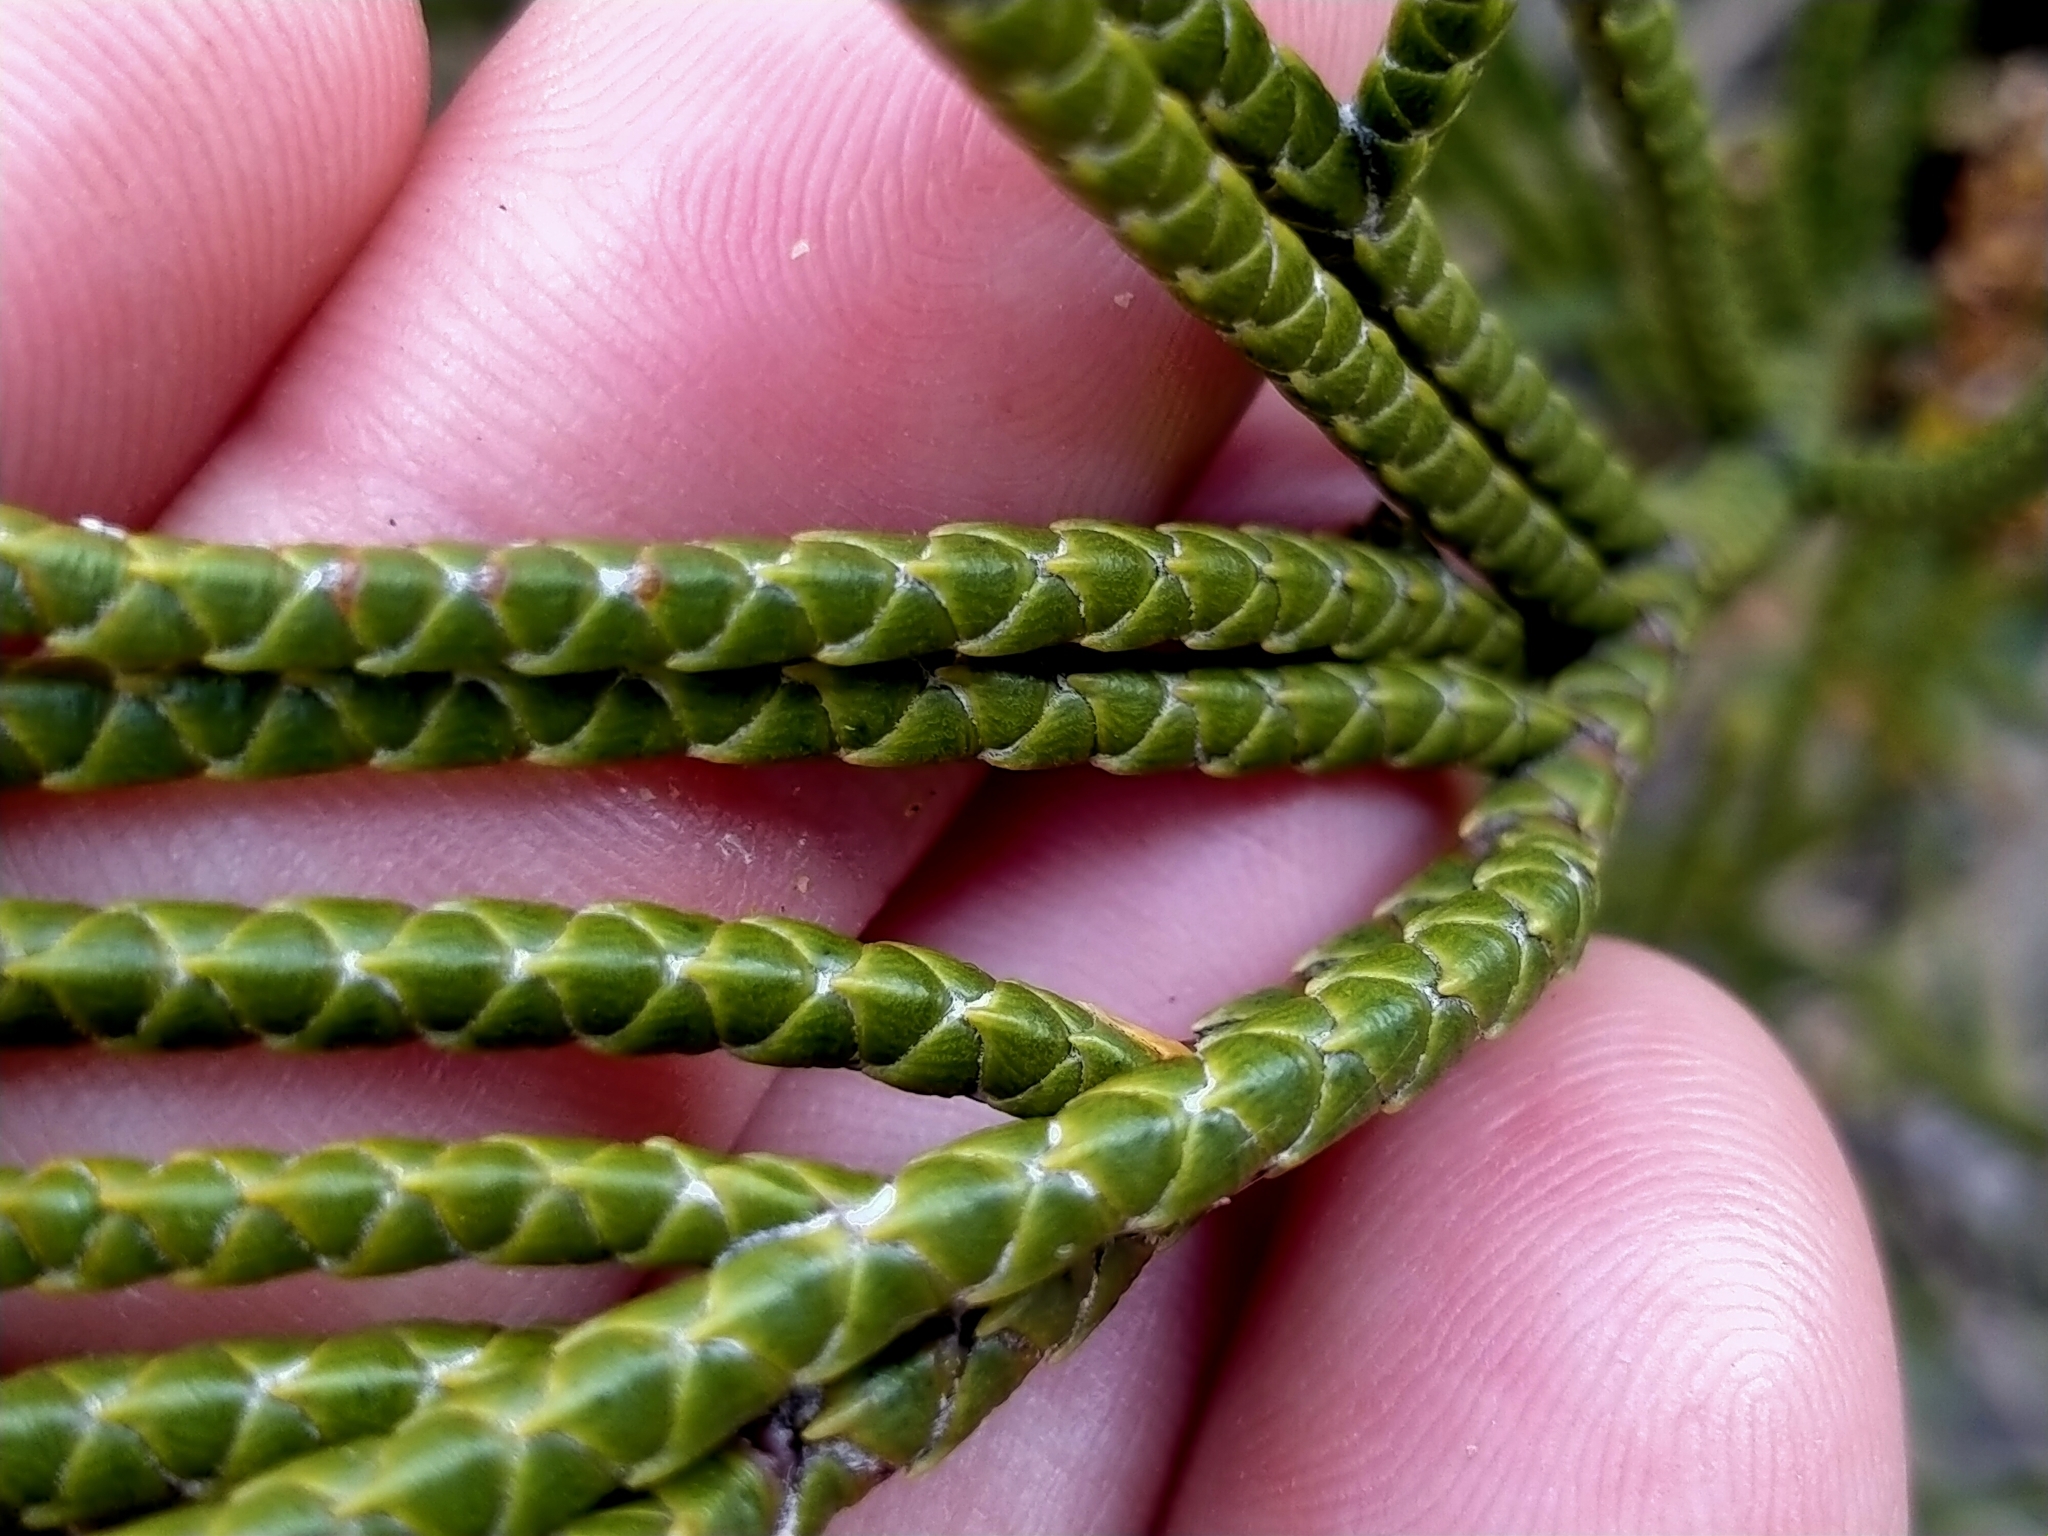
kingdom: Plantae
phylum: Tracheophyta
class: Magnoliopsida
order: Lamiales
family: Plantaginaceae
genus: Veronica
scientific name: Veronica lycopodioides
